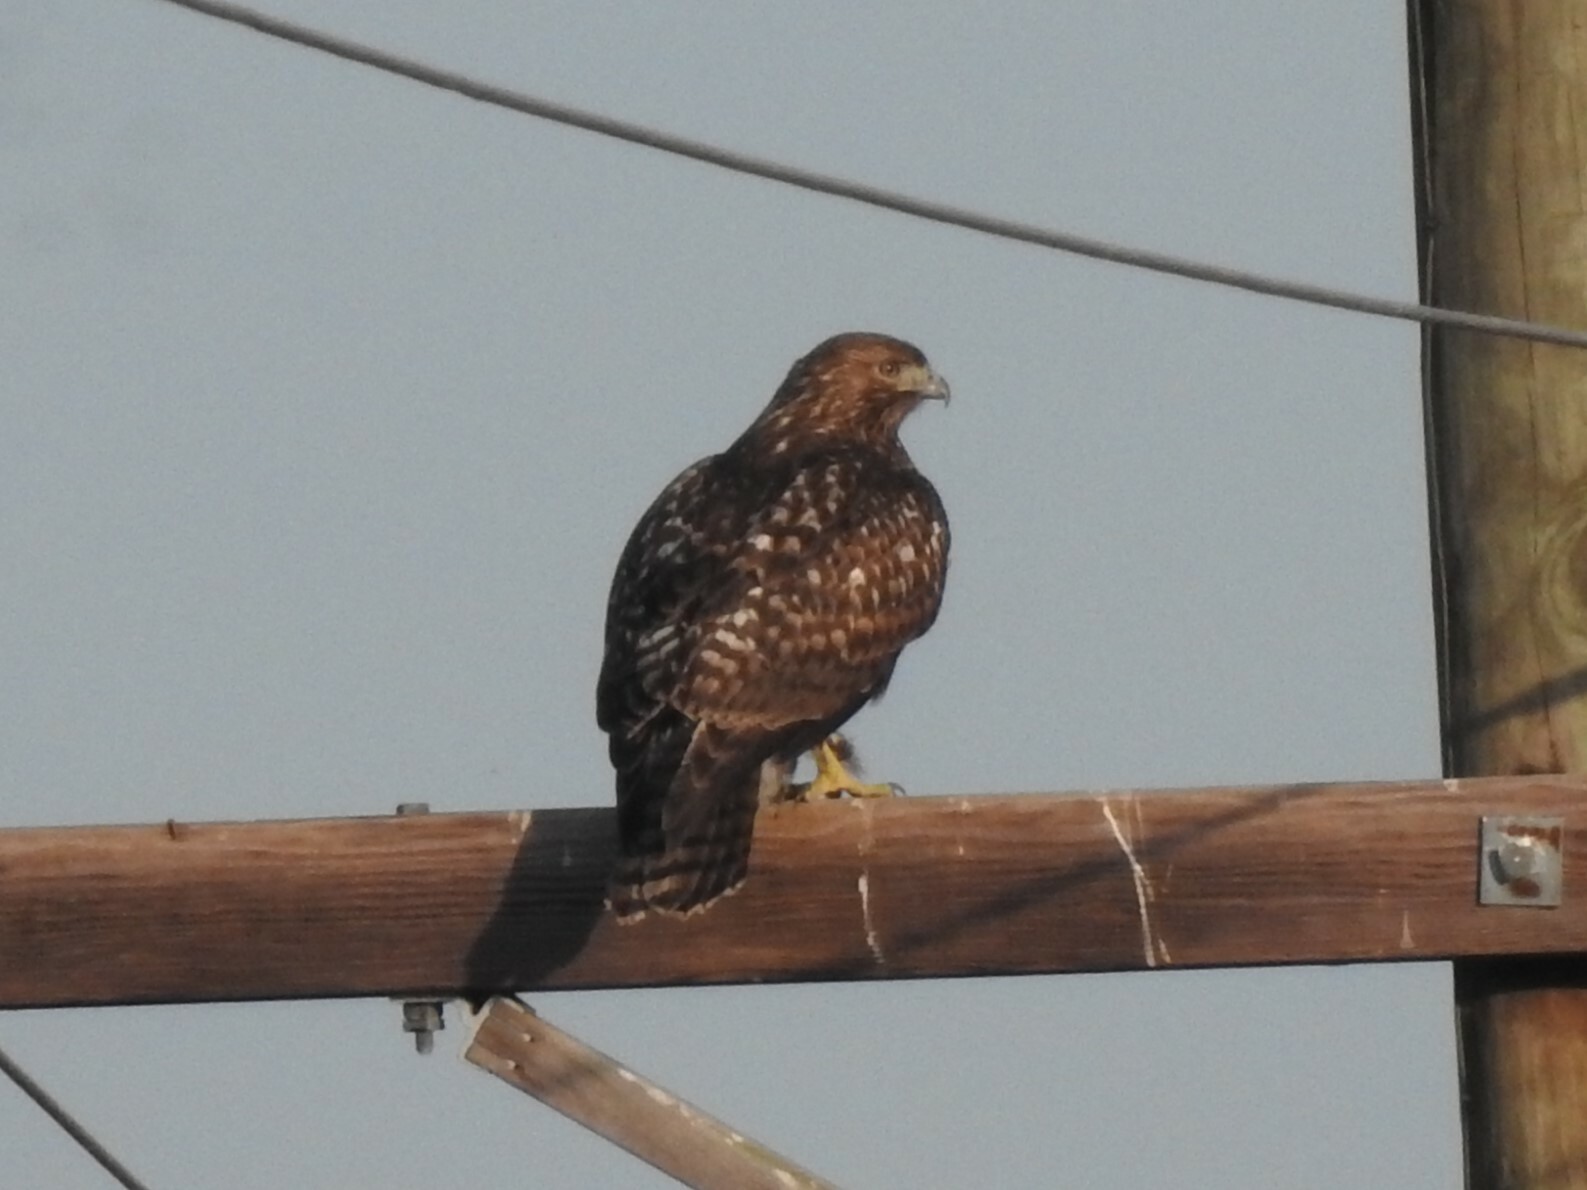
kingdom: Animalia
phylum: Chordata
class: Aves
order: Accipitriformes
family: Accipitridae
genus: Buteo
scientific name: Buteo jamaicensis
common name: Red-tailed hawk
